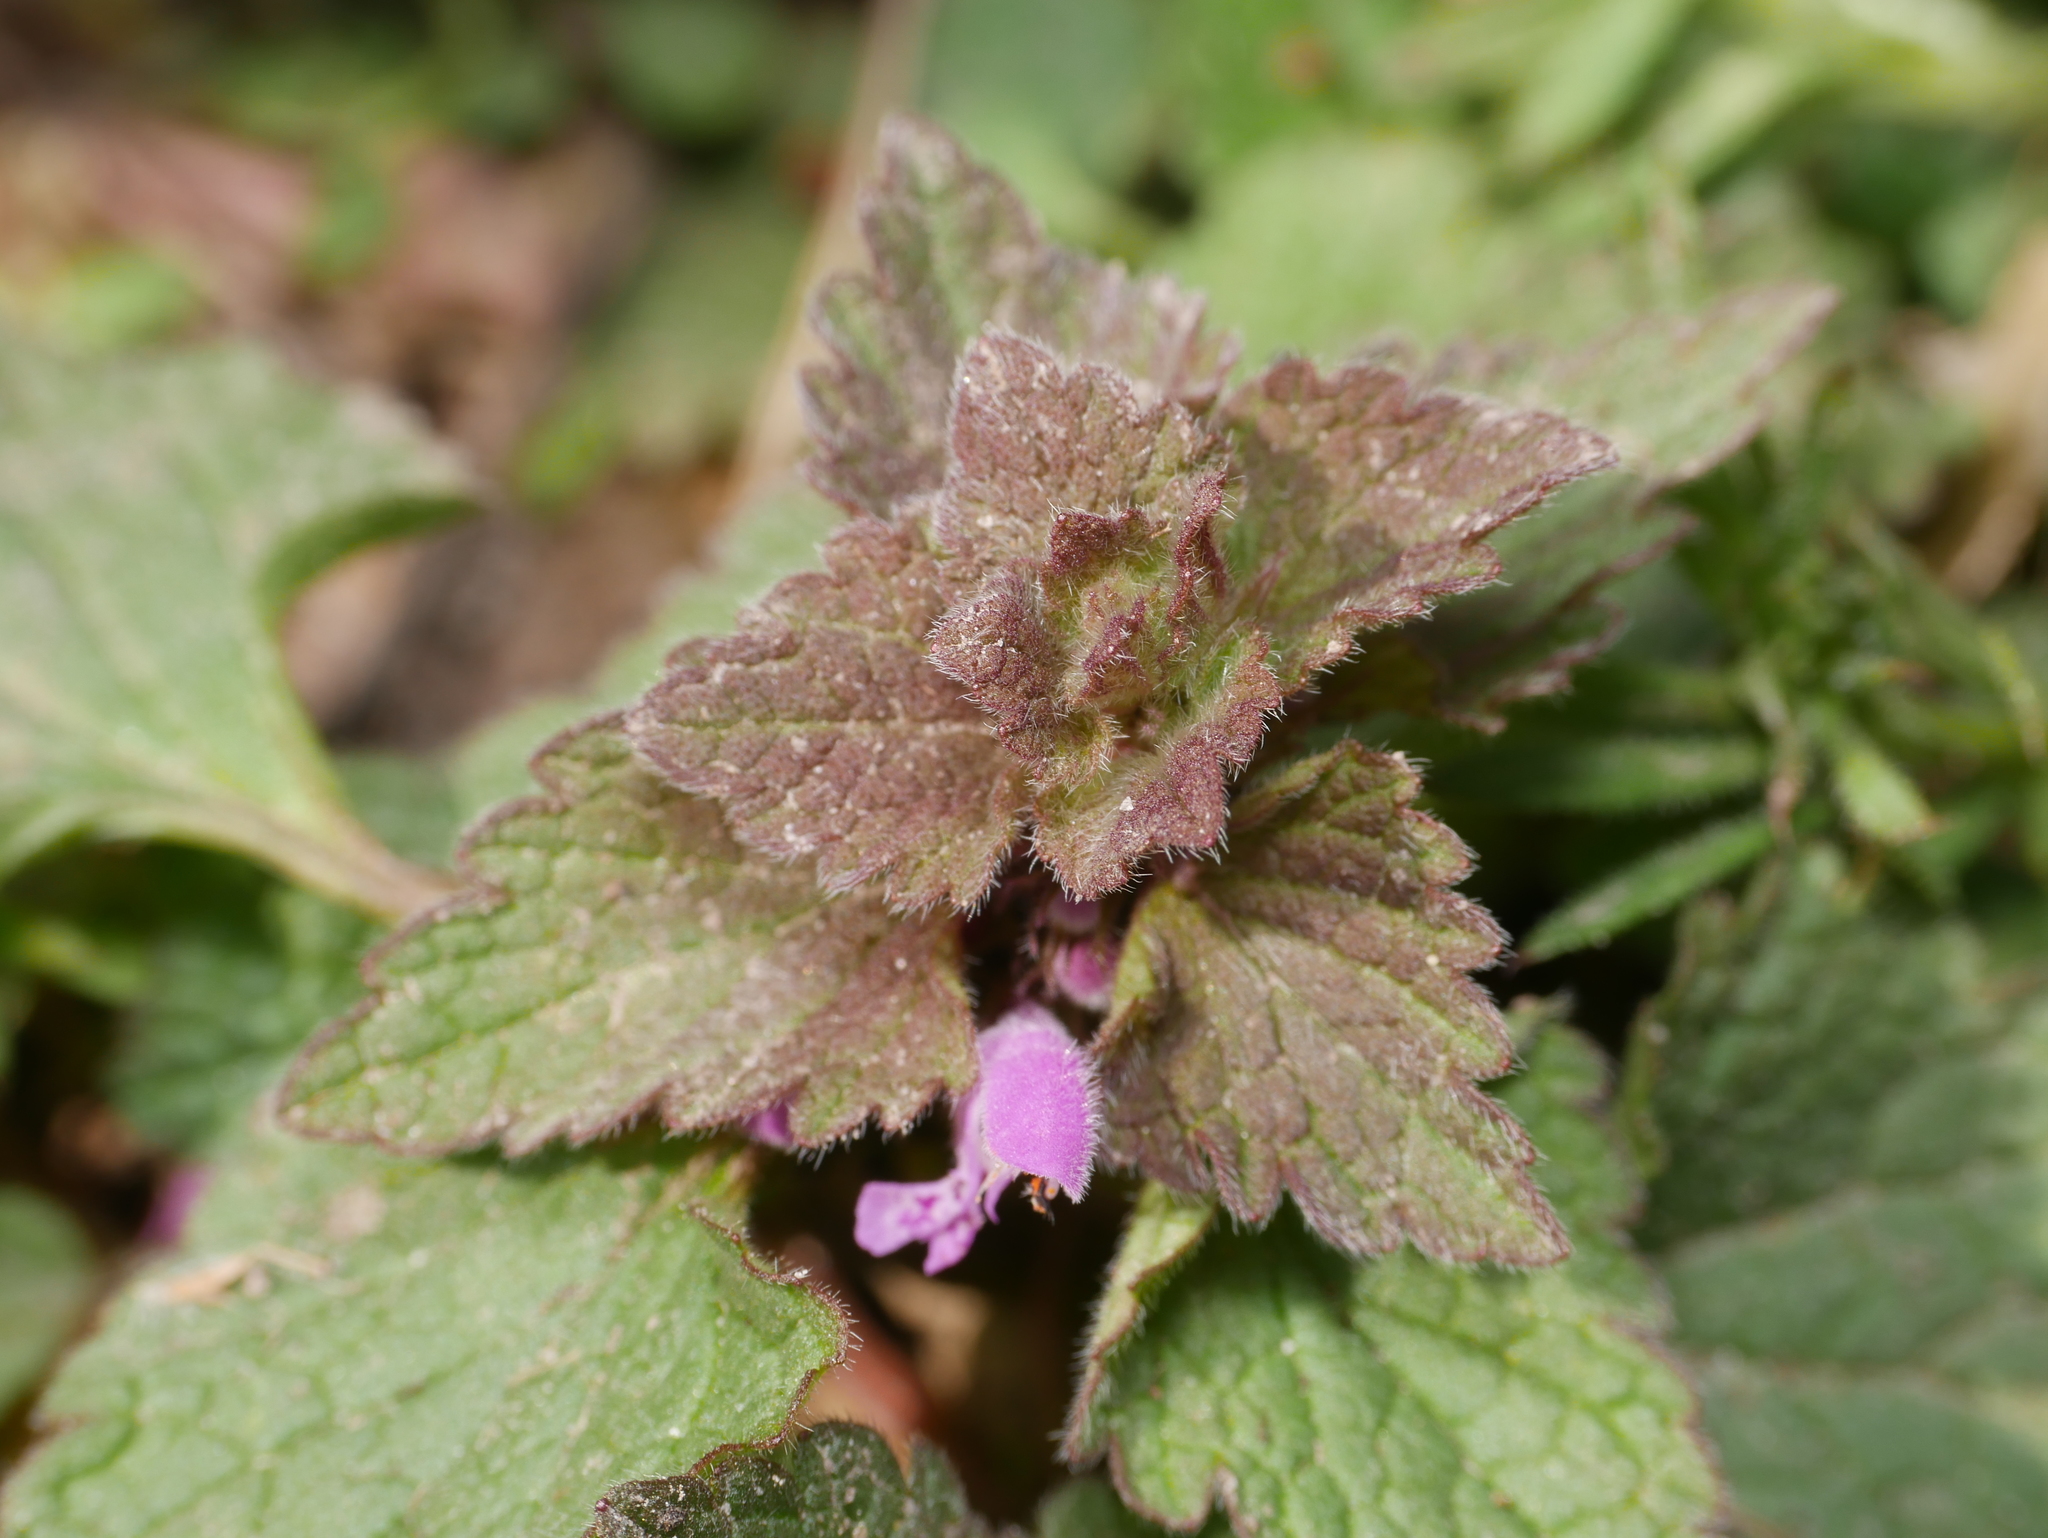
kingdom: Plantae
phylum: Tracheophyta
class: Magnoliopsida
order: Lamiales
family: Lamiaceae
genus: Lamium
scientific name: Lamium purpureum
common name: Red dead-nettle
